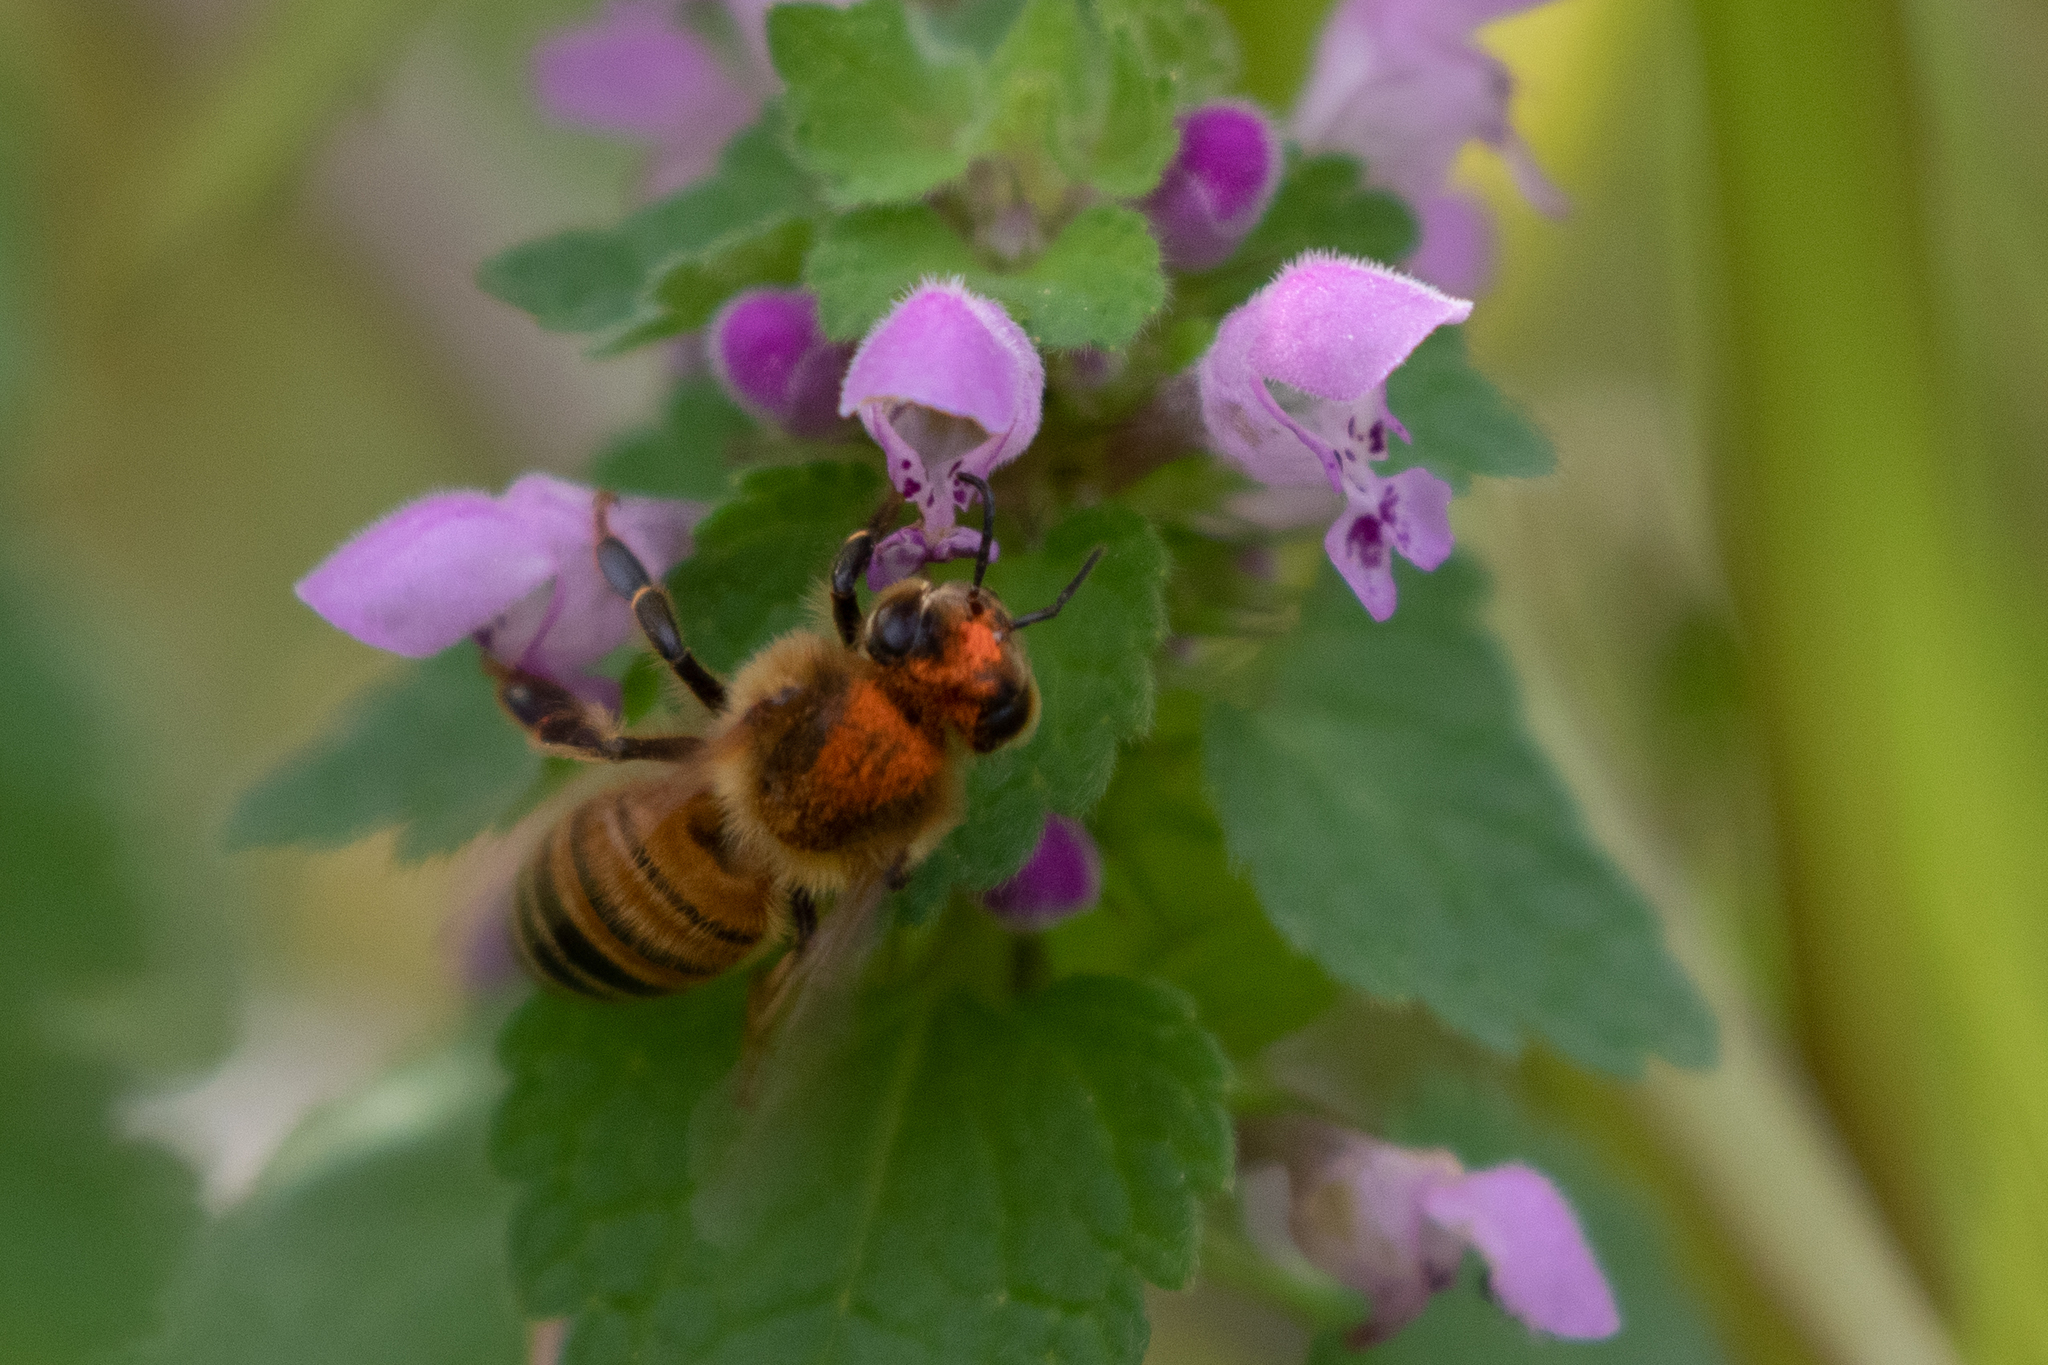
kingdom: Animalia
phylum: Arthropoda
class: Insecta
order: Hymenoptera
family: Apidae
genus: Apis
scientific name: Apis mellifera
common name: Honey bee
